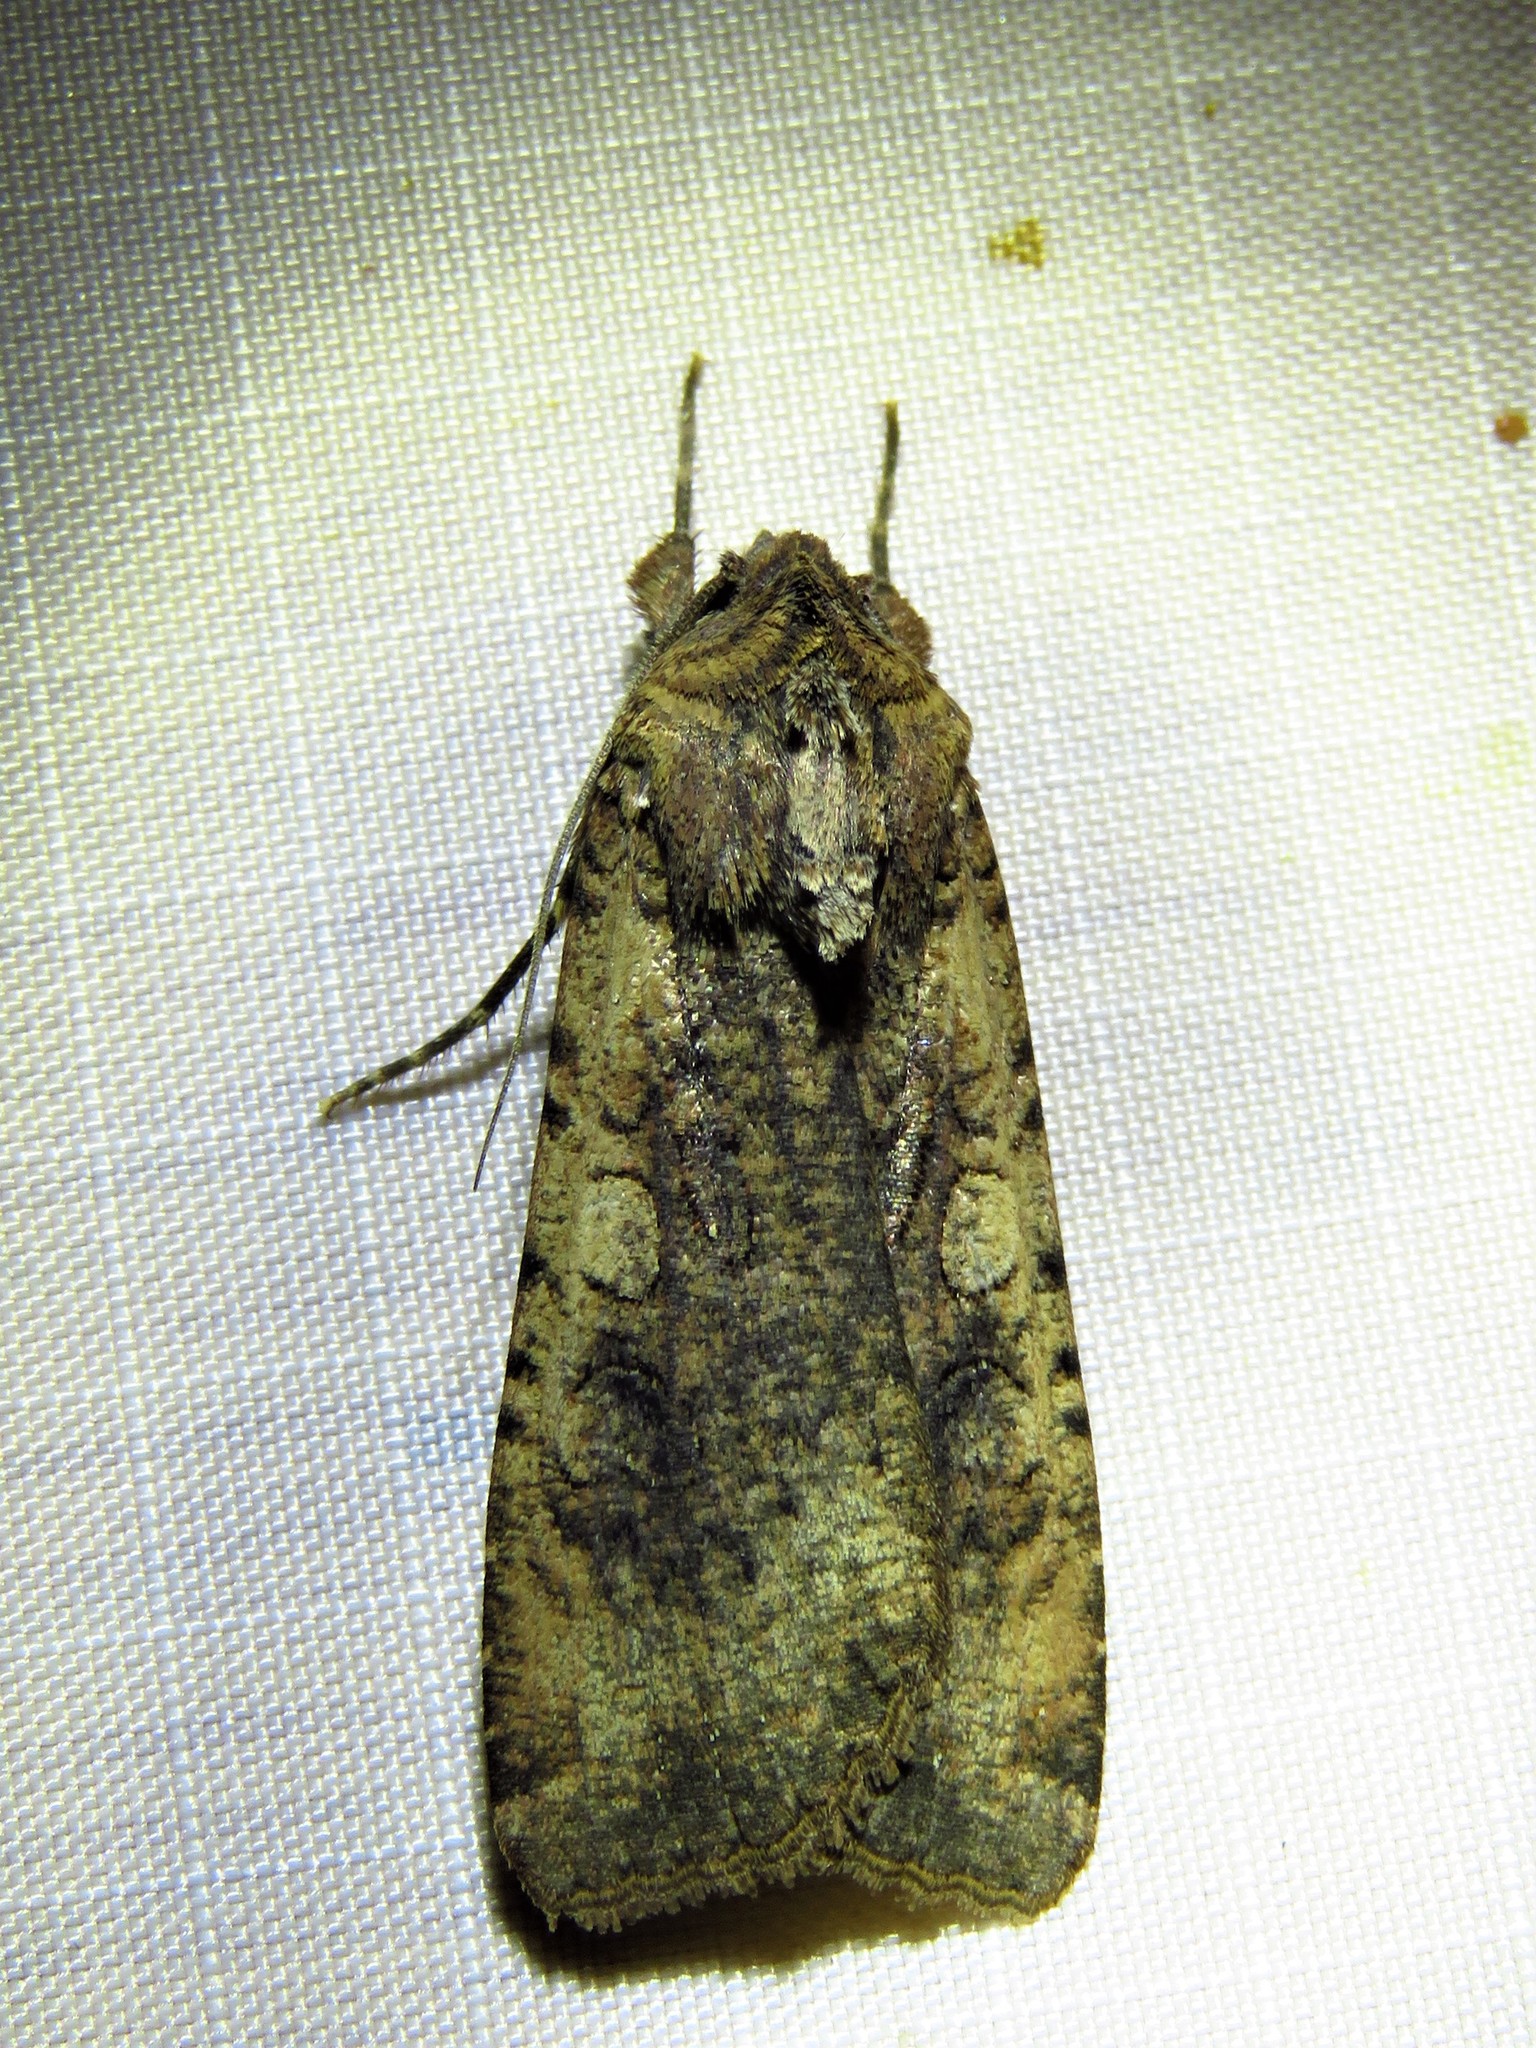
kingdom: Animalia
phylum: Arthropoda
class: Insecta
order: Lepidoptera
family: Noctuidae
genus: Peridroma
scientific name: Peridroma saucia
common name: Pearly underwing
